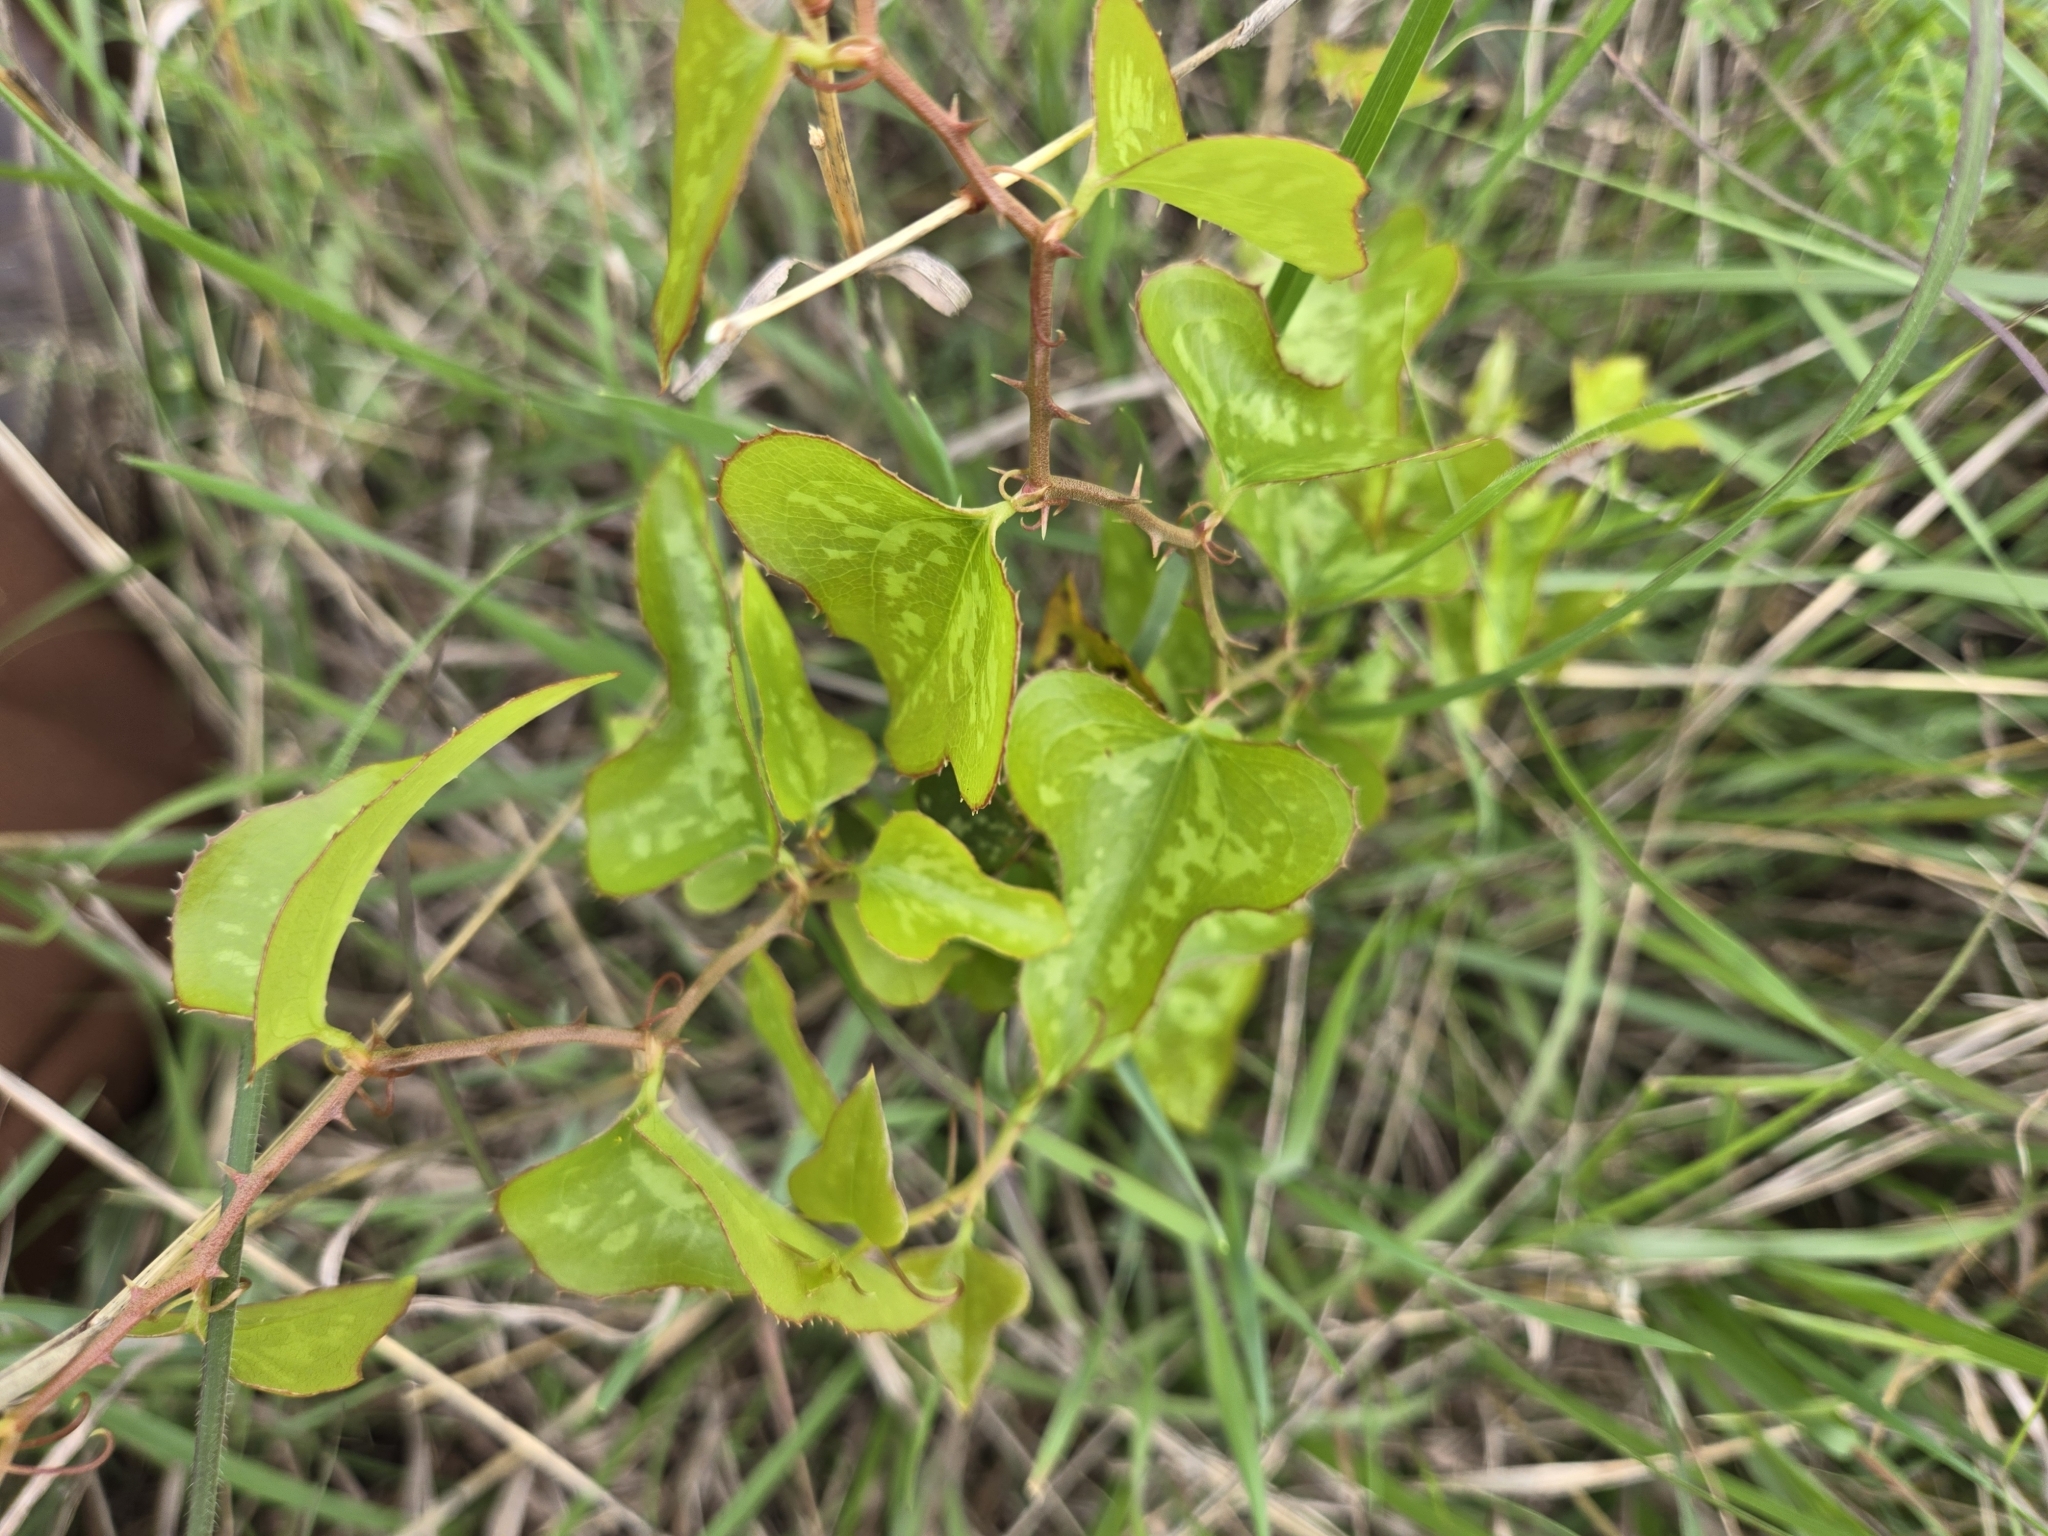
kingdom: Plantae
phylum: Tracheophyta
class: Liliopsida
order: Liliales
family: Smilacaceae
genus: Smilax
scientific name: Smilax bona-nox
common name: Catbrier
